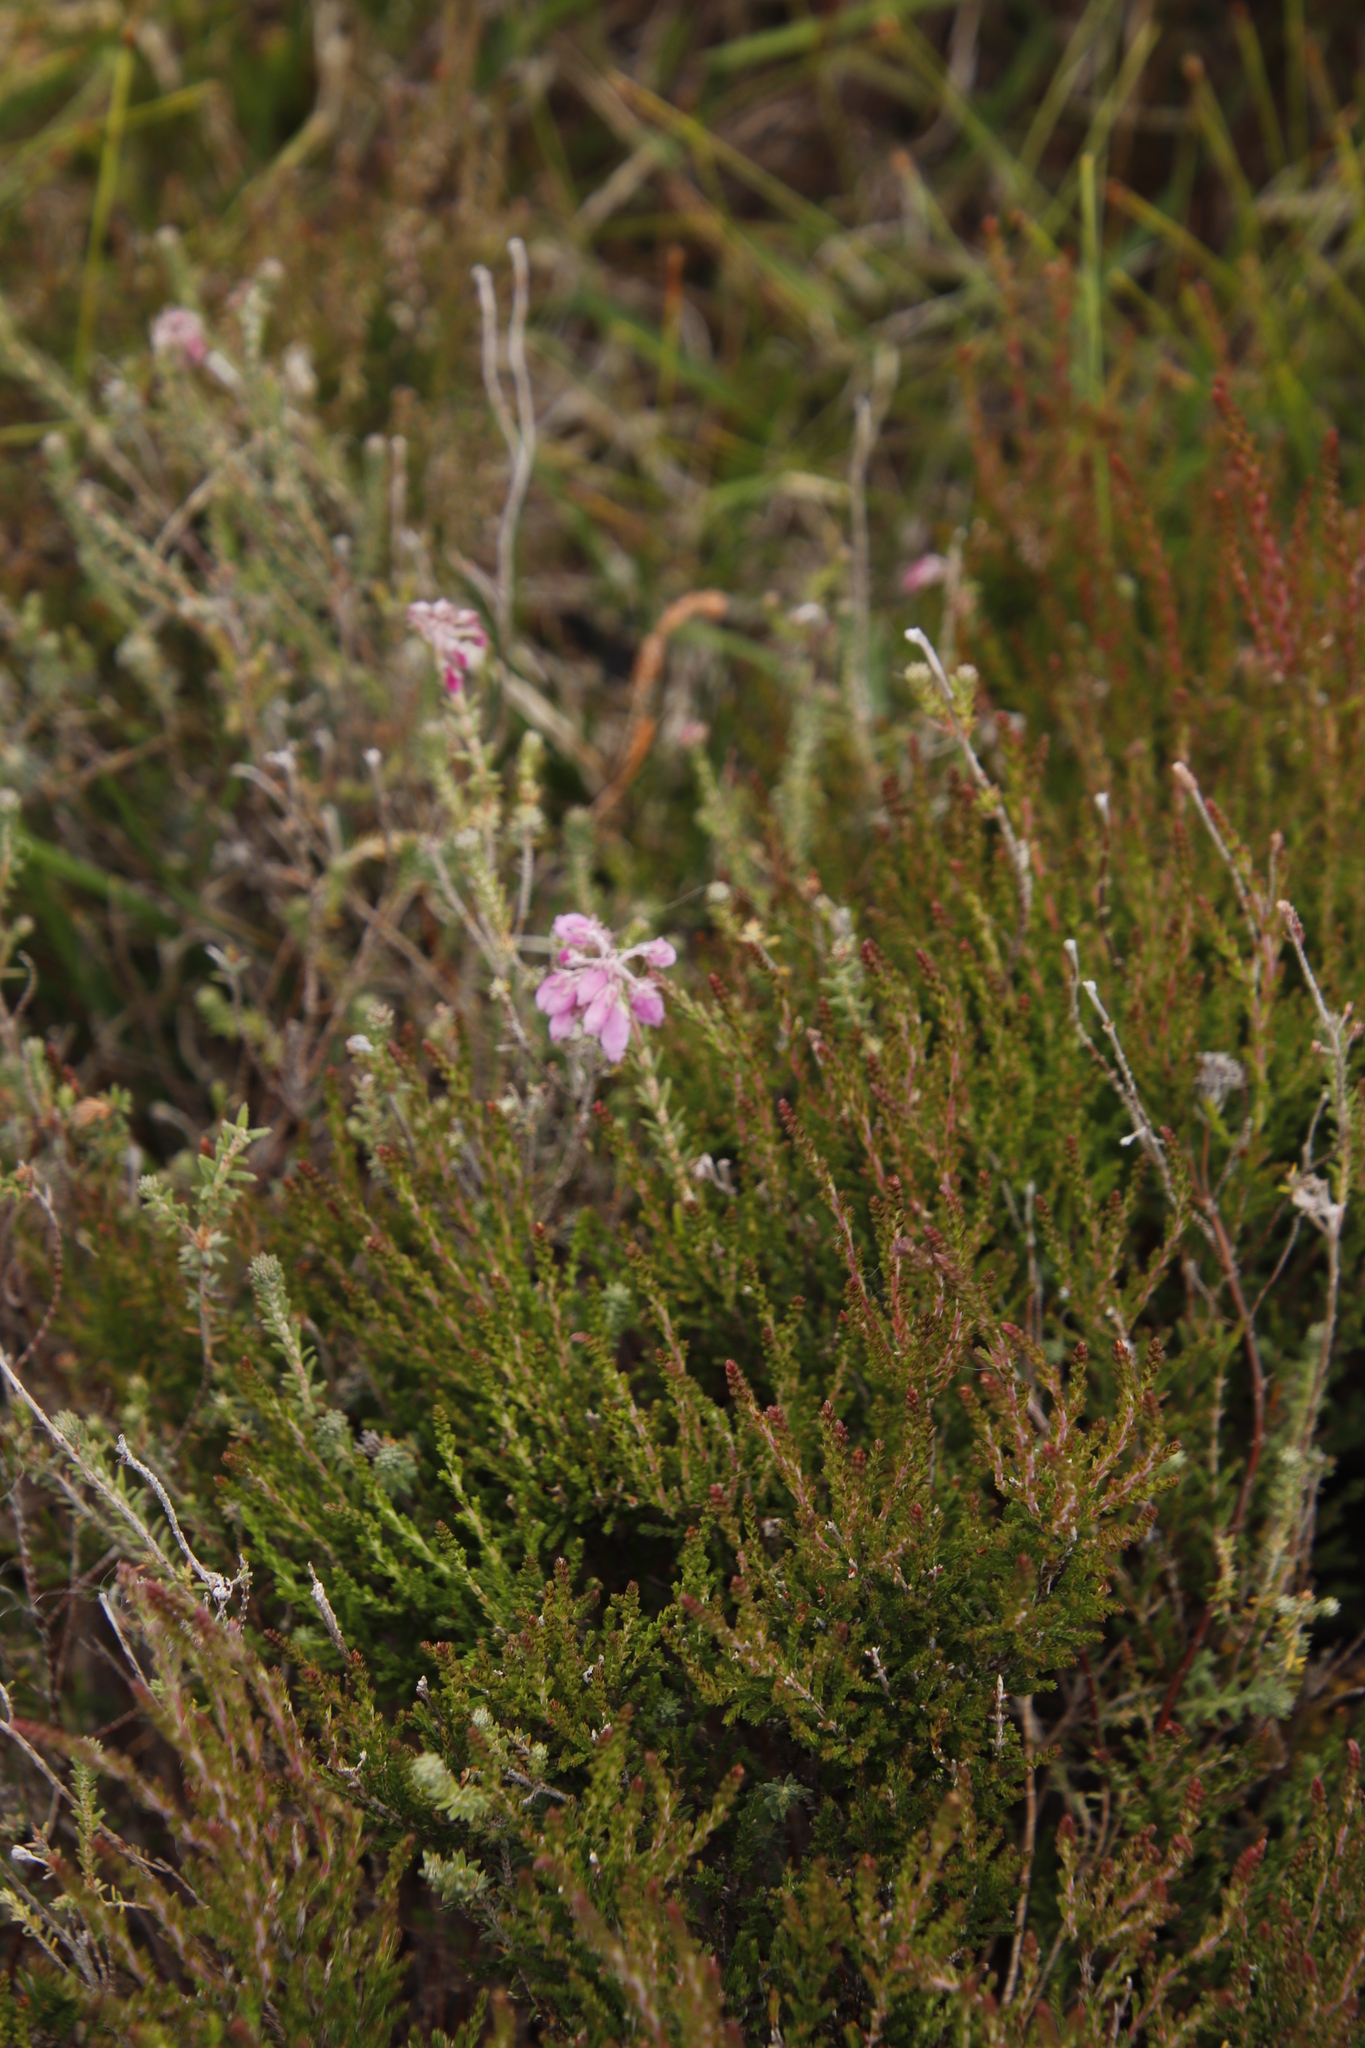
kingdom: Plantae
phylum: Tracheophyta
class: Magnoliopsida
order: Ericales
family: Ericaceae
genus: Erica
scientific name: Erica tetralix
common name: Cross-leaved heath
